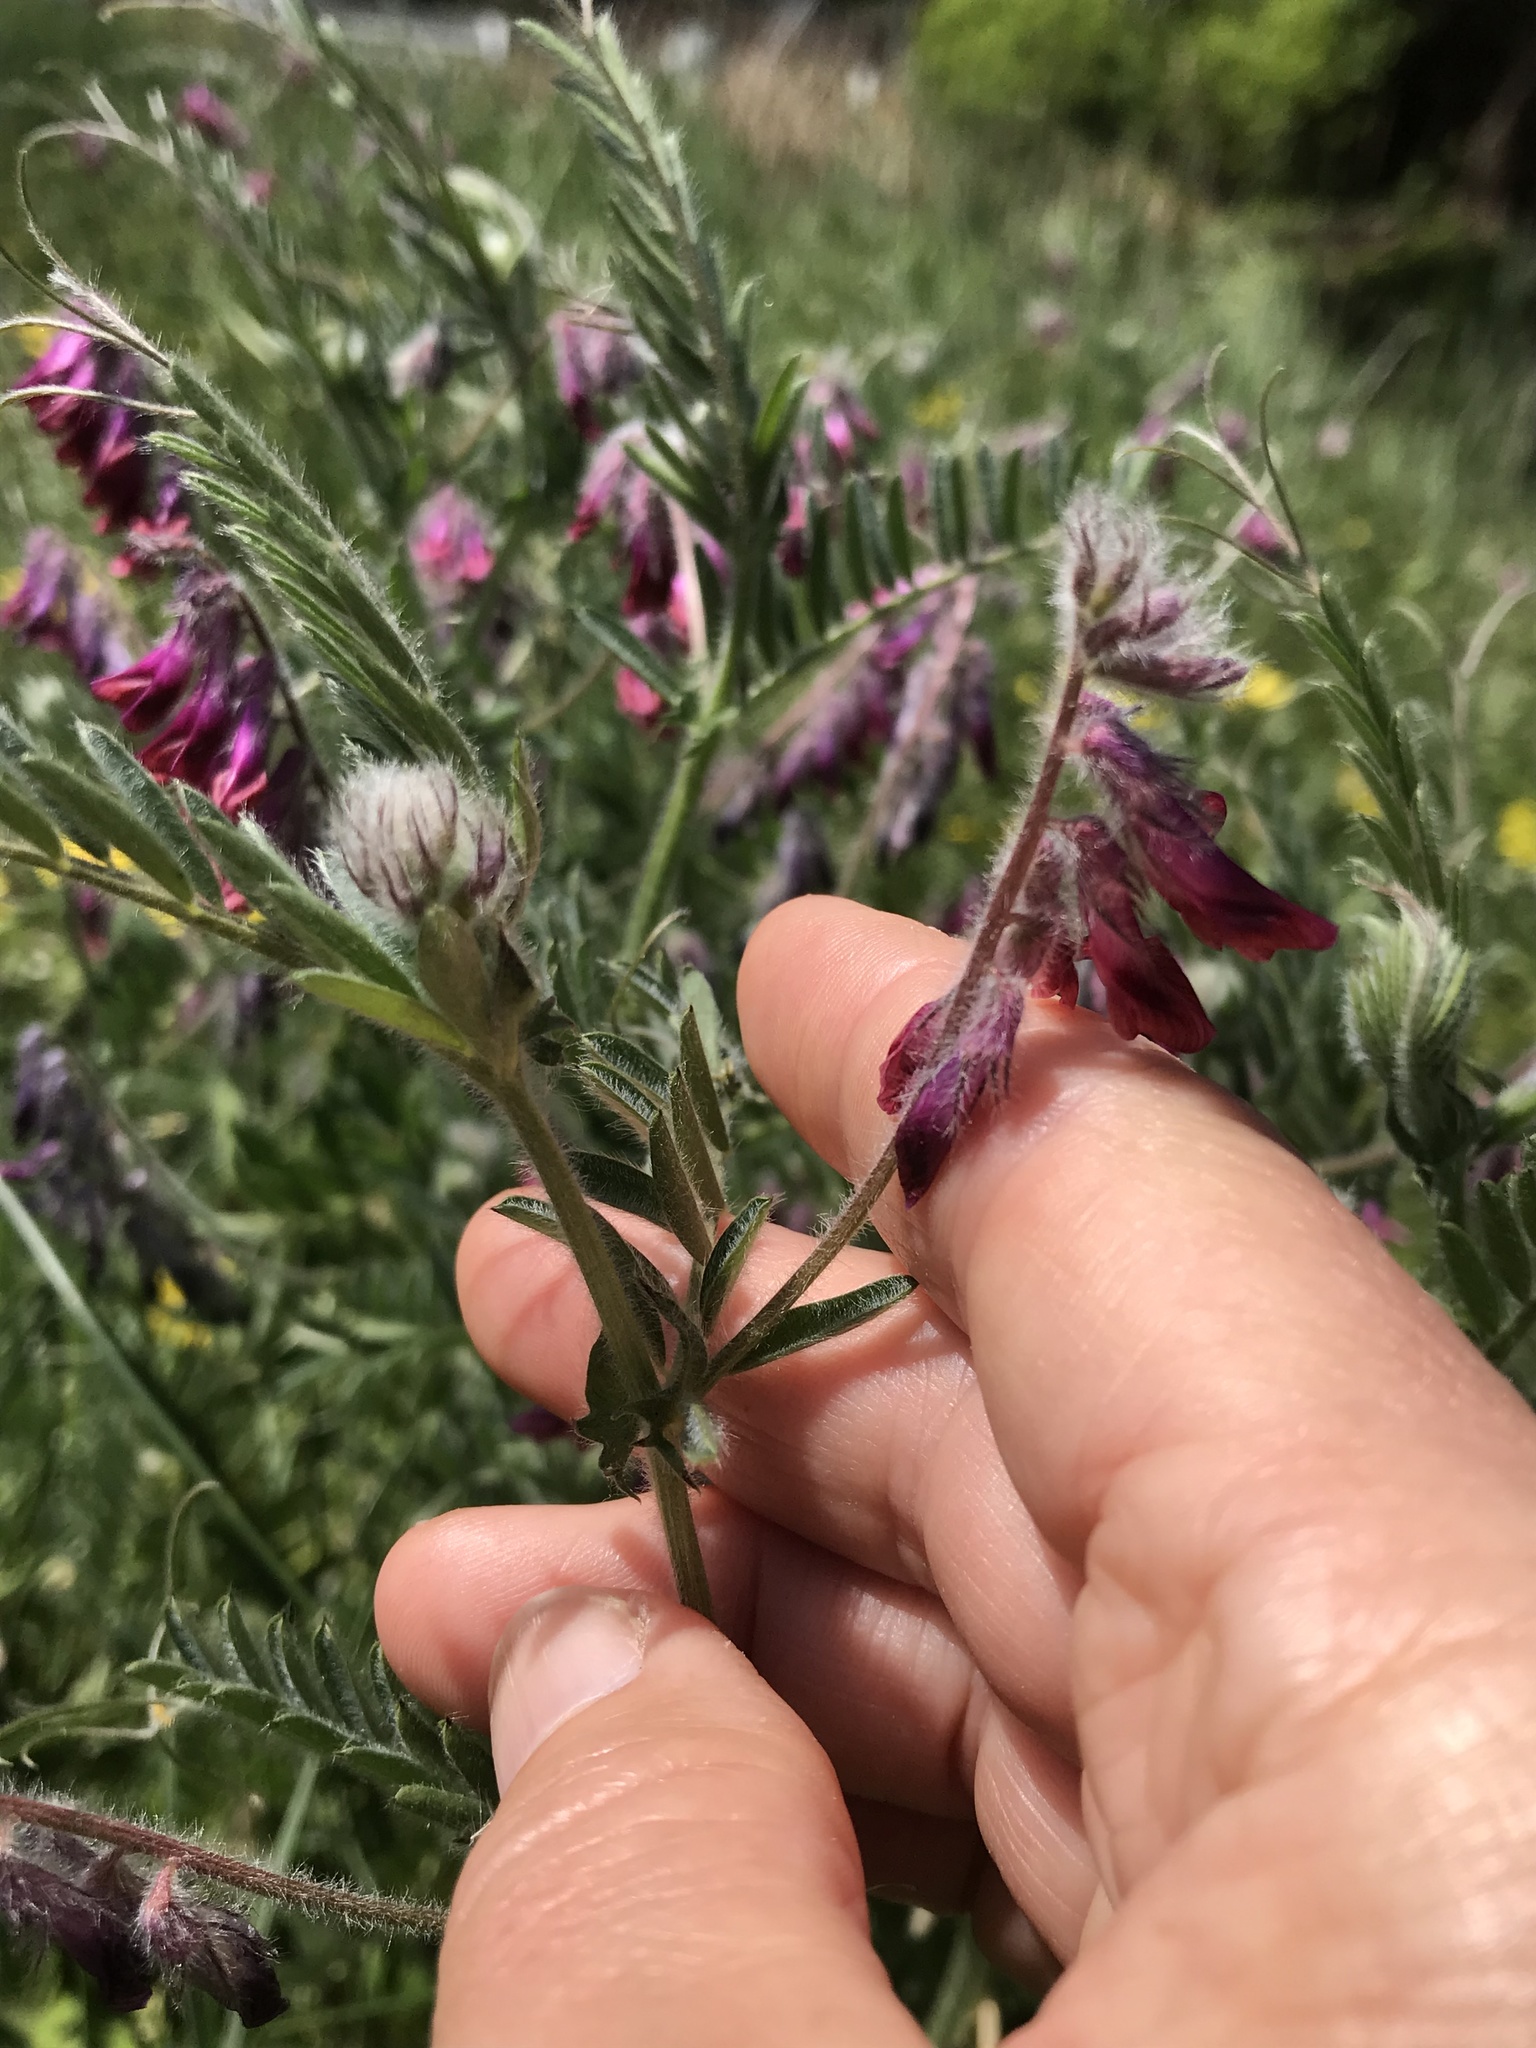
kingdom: Plantae
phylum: Tracheophyta
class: Magnoliopsida
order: Fabales
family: Fabaceae
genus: Vicia
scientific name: Vicia benghalensis
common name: Purple vetch
